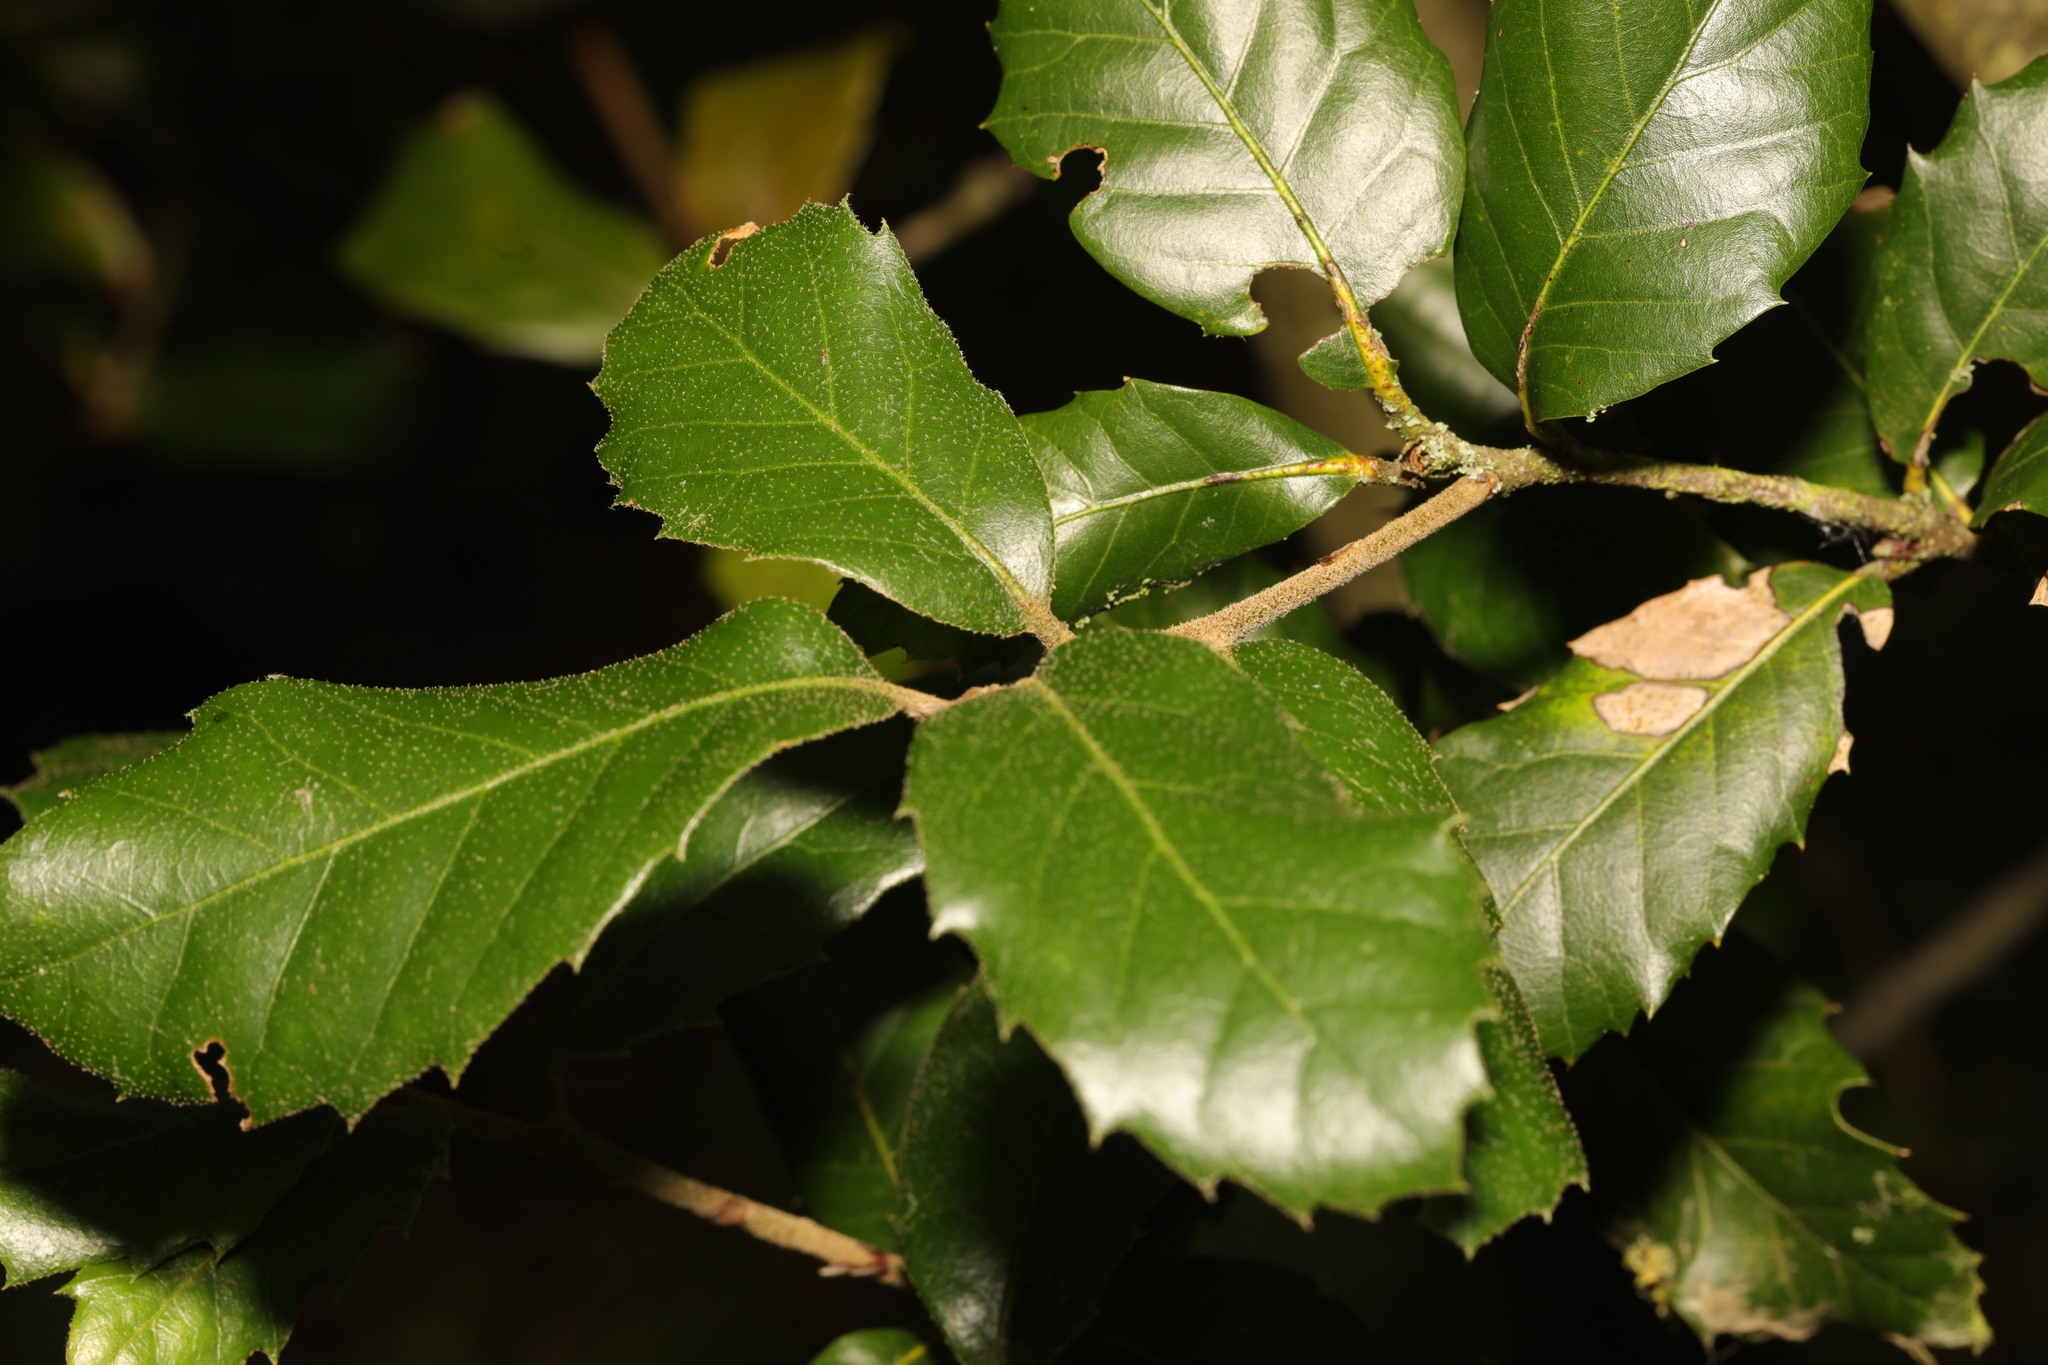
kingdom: Plantae
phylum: Tracheophyta
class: Magnoliopsida
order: Fagales
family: Fagaceae
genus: Quercus
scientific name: Quercus ilex
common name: Evergreen oak
